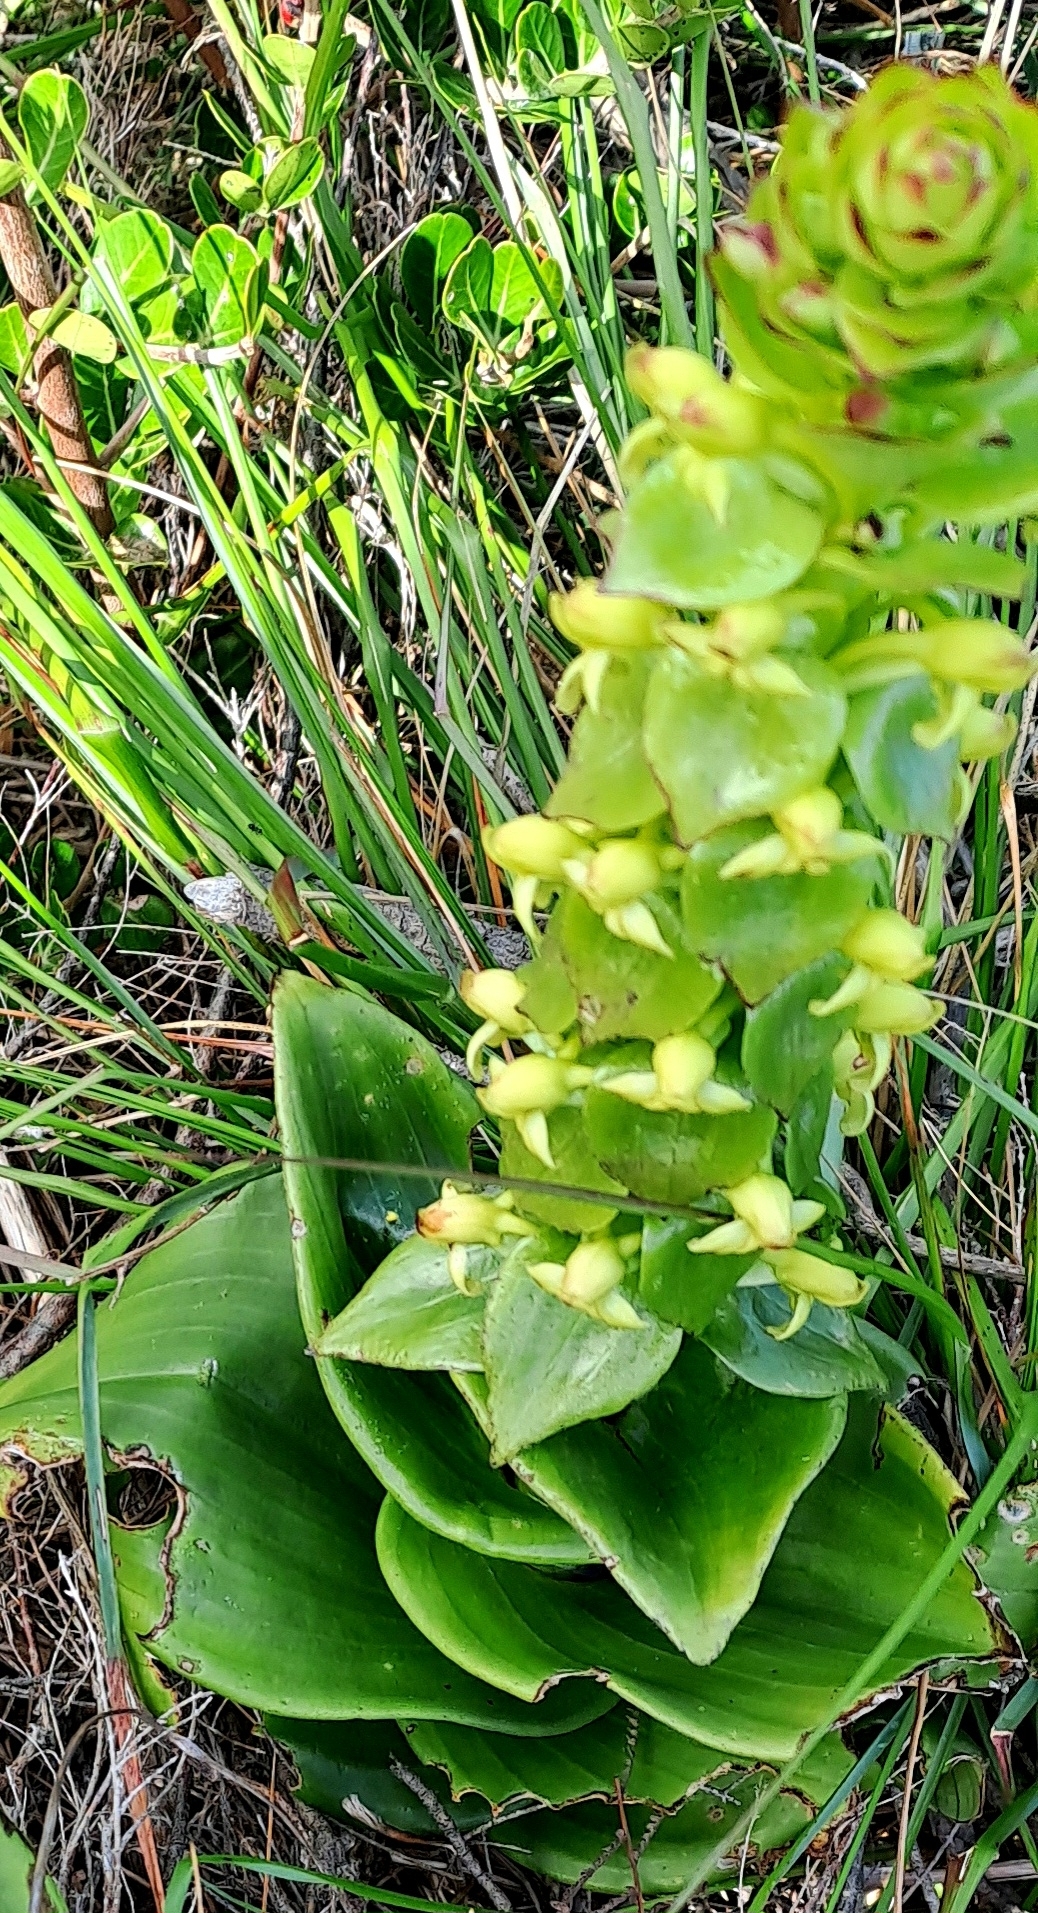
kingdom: Plantae
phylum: Tracheophyta
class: Liliopsida
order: Asparagales
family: Orchidaceae
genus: Satyrium
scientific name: Satyrium odorum
